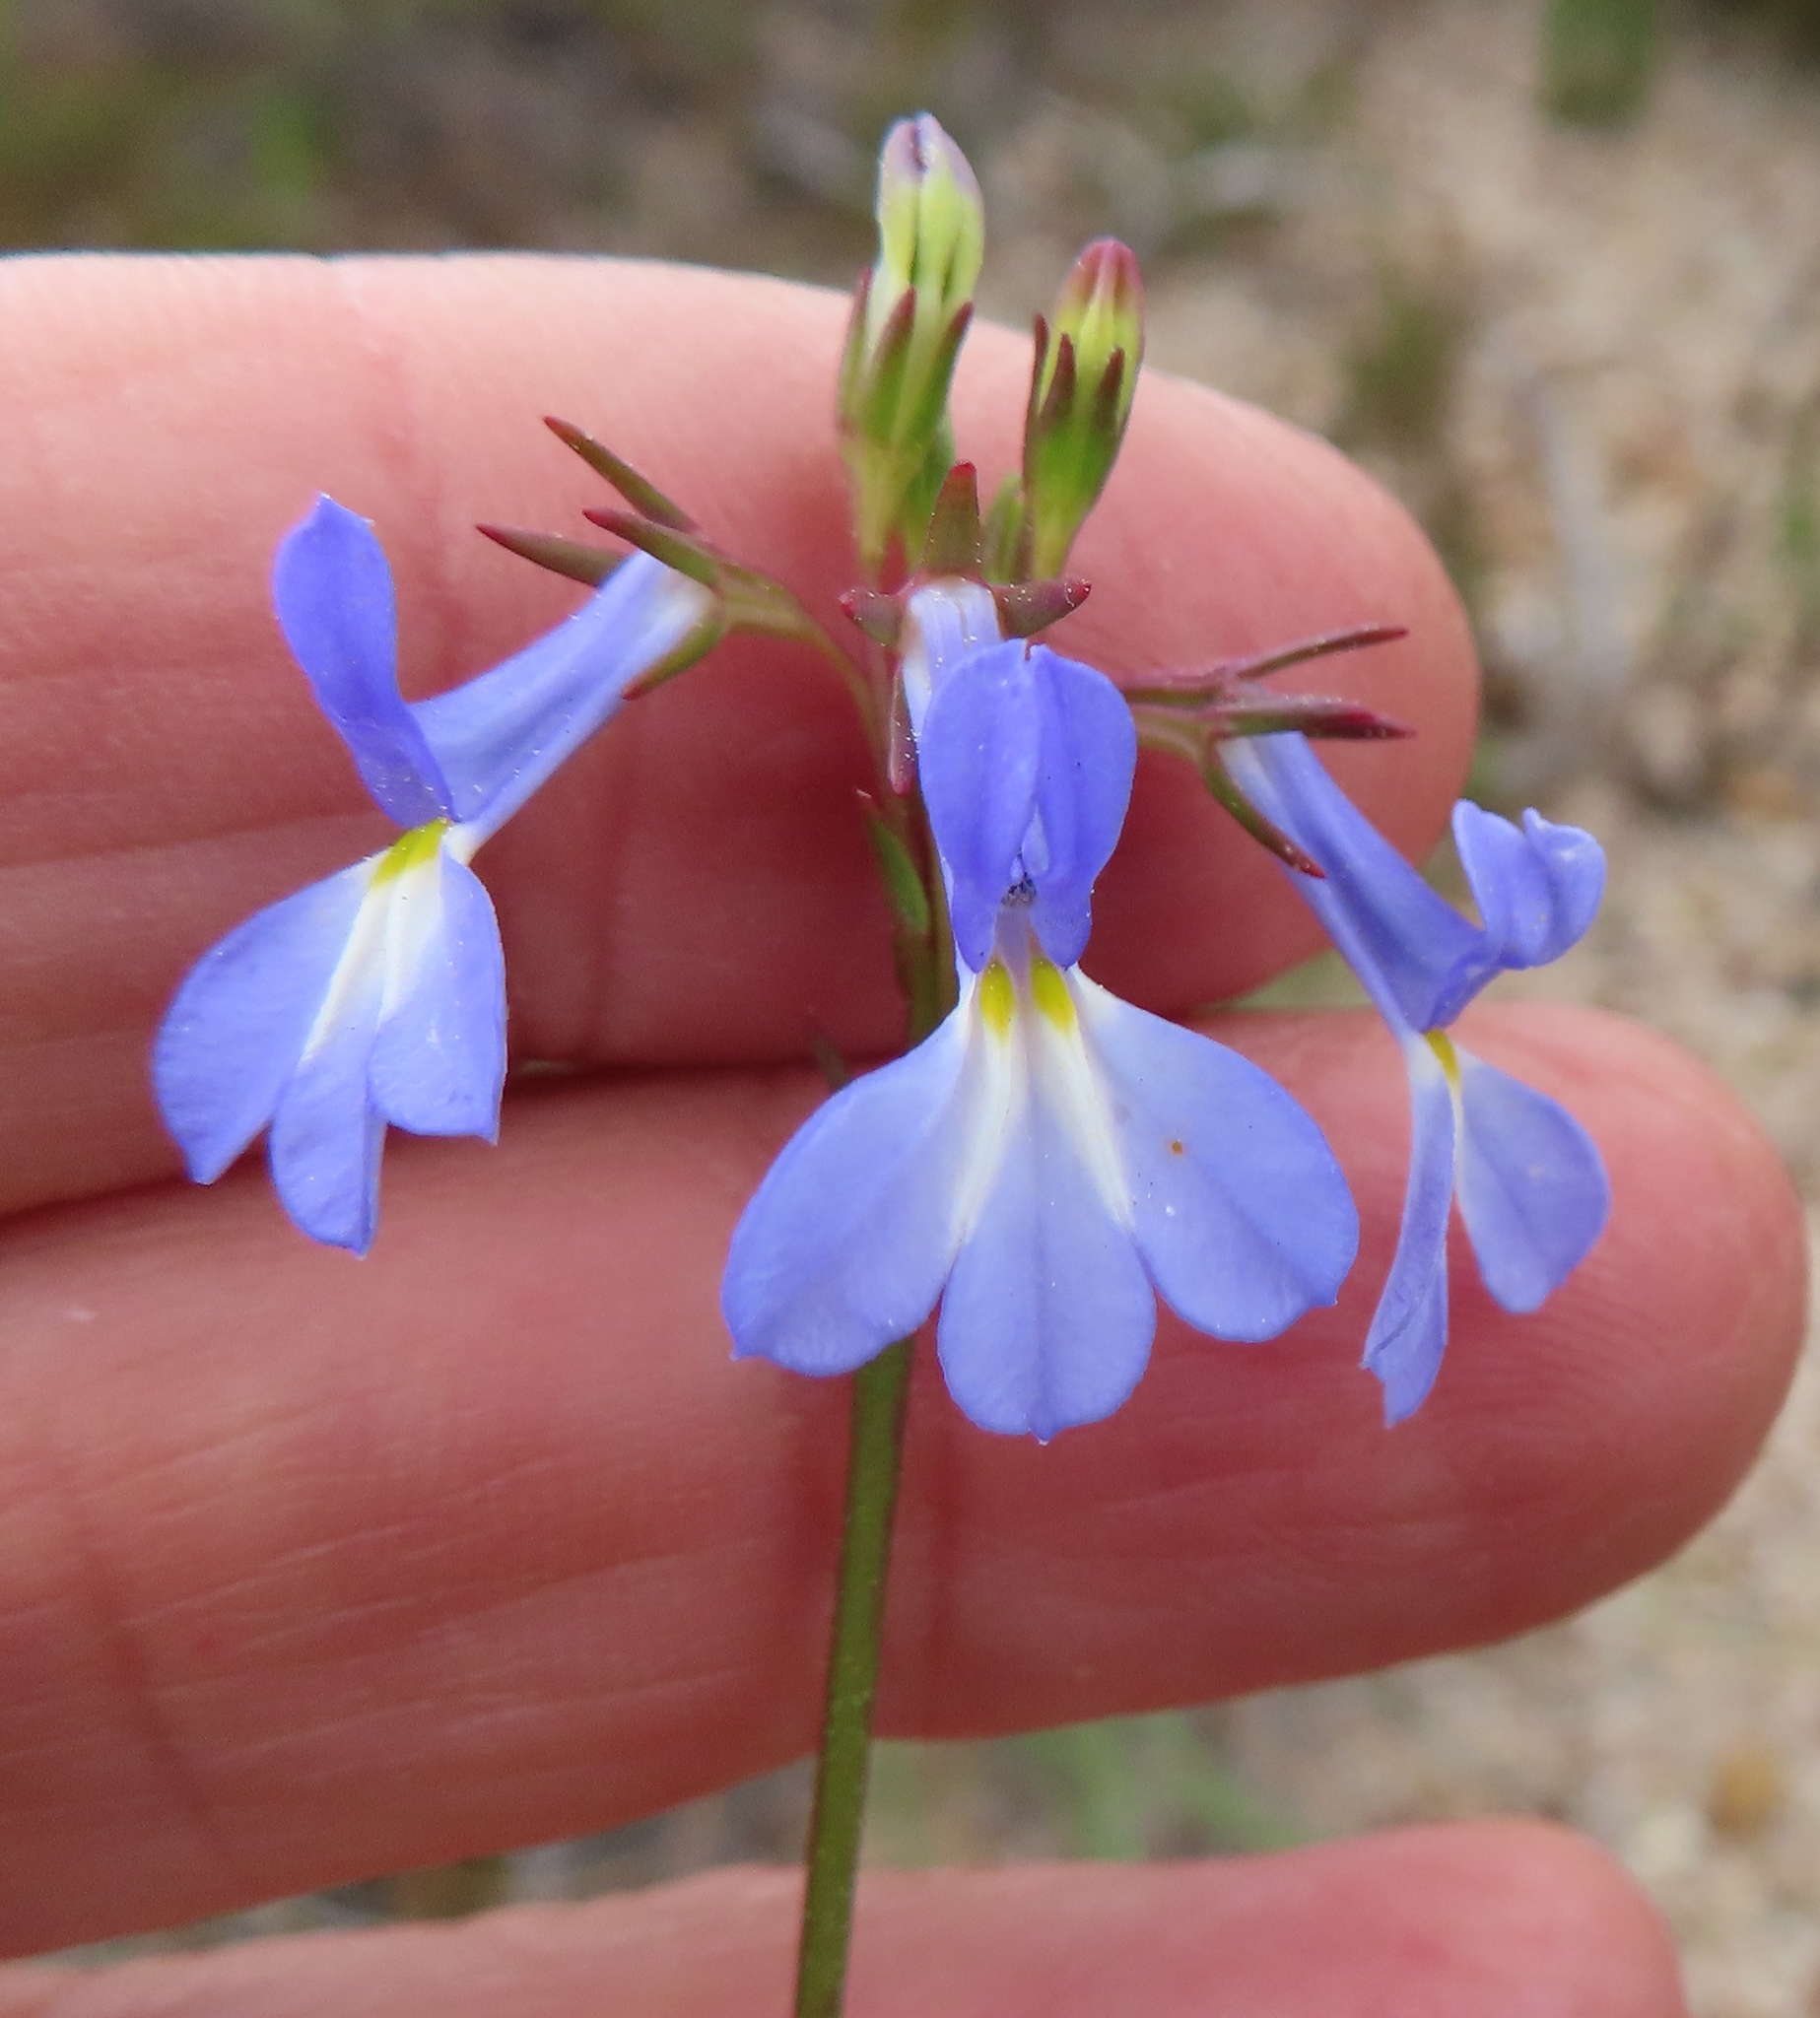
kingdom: Plantae
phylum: Tracheophyta
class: Magnoliopsida
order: Asterales
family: Campanulaceae
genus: Lobelia
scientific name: Lobelia comosa
